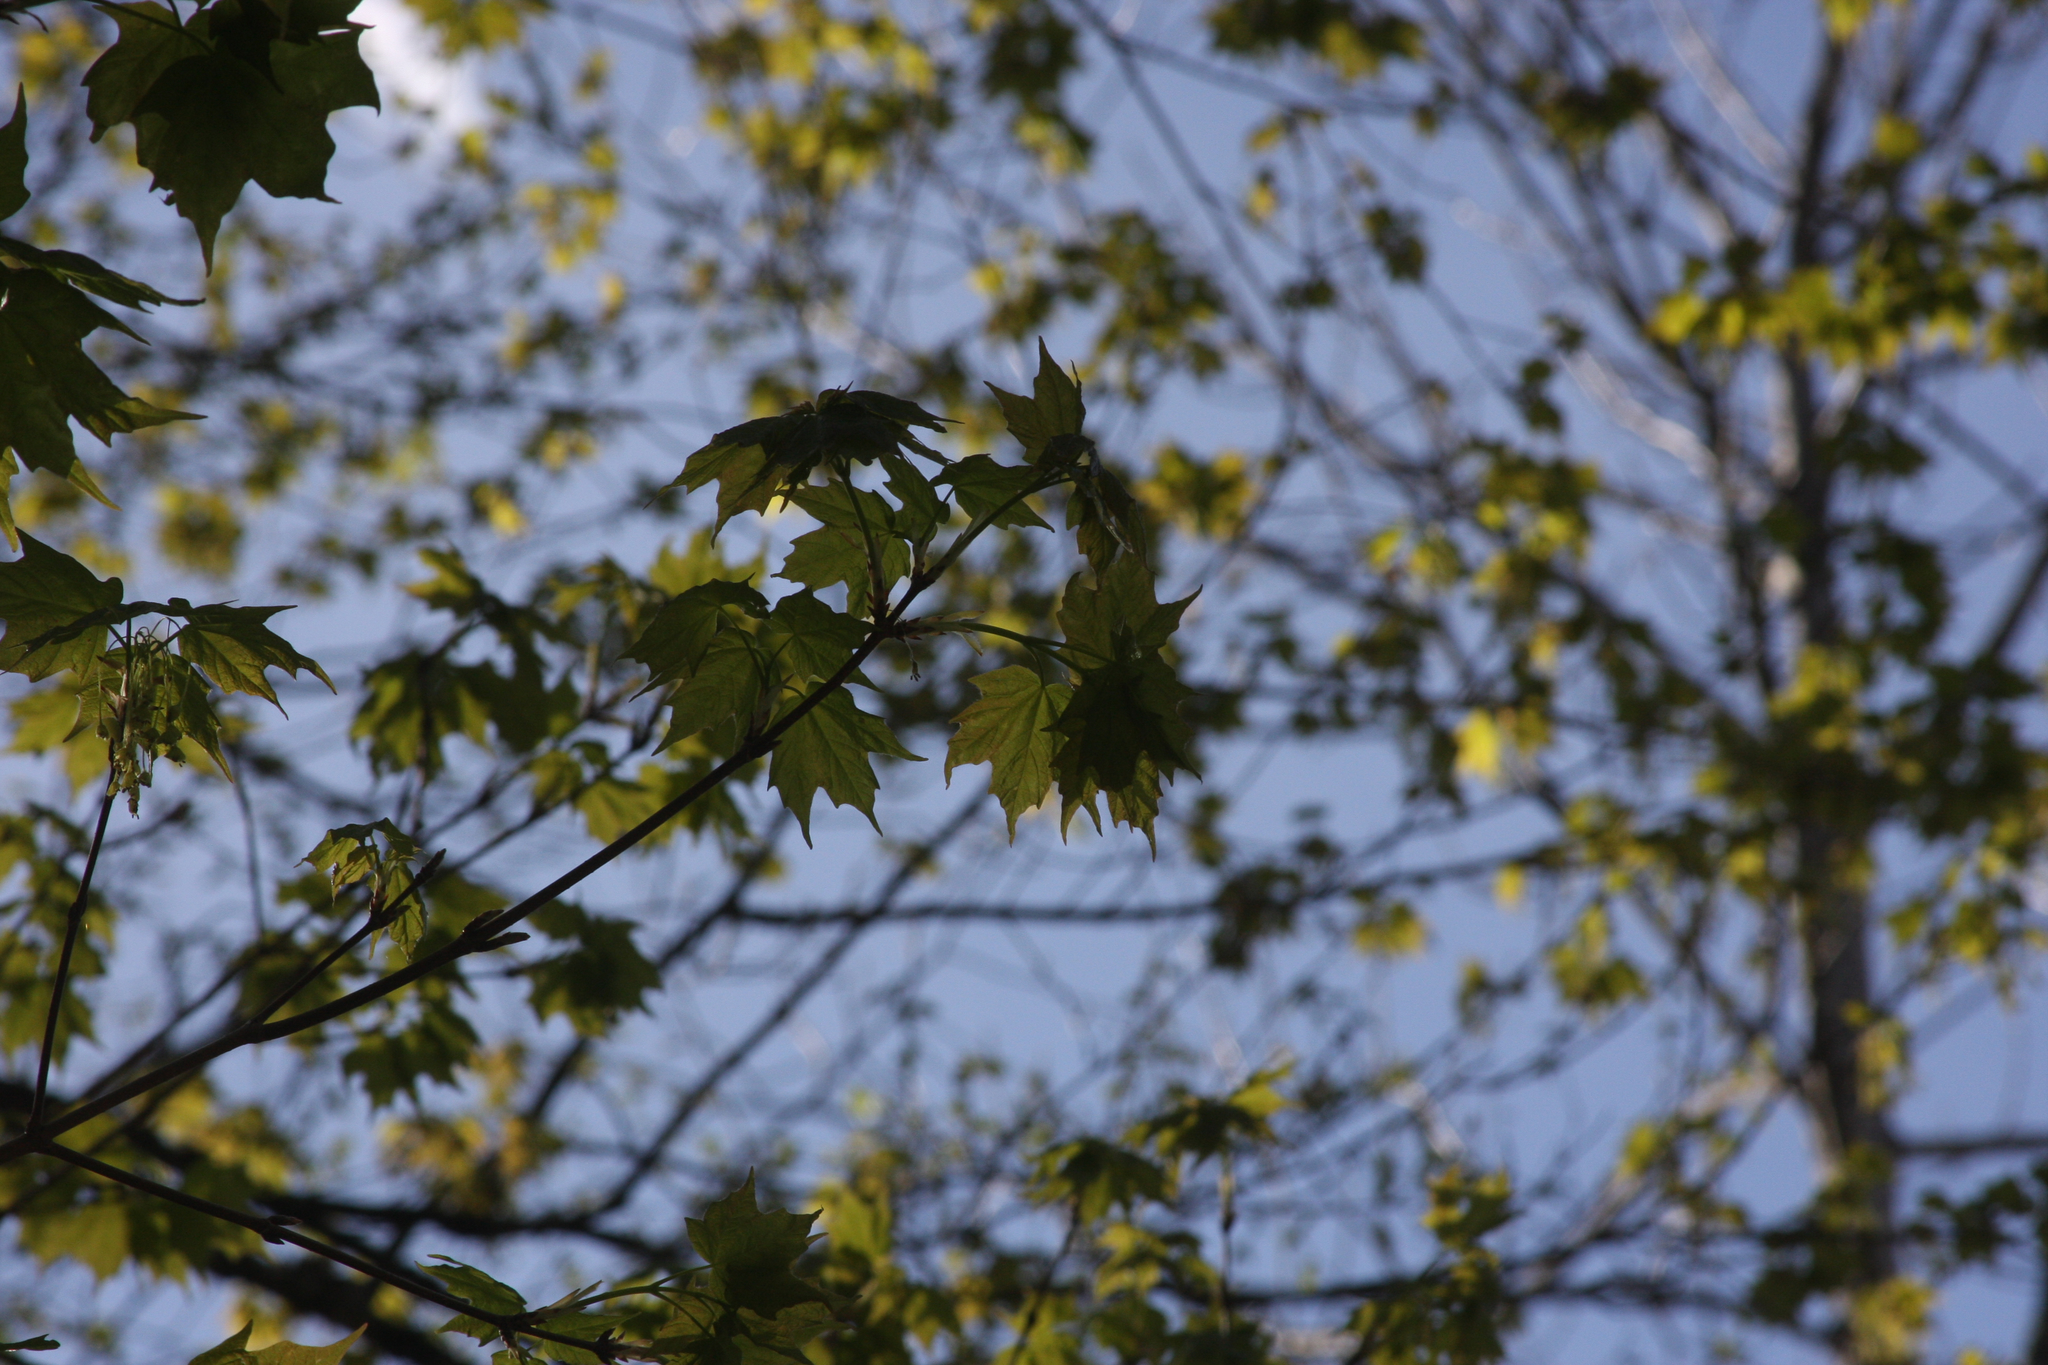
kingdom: Plantae
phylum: Tracheophyta
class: Magnoliopsida
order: Sapindales
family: Sapindaceae
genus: Acer
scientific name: Acer saccharum
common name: Sugar maple
